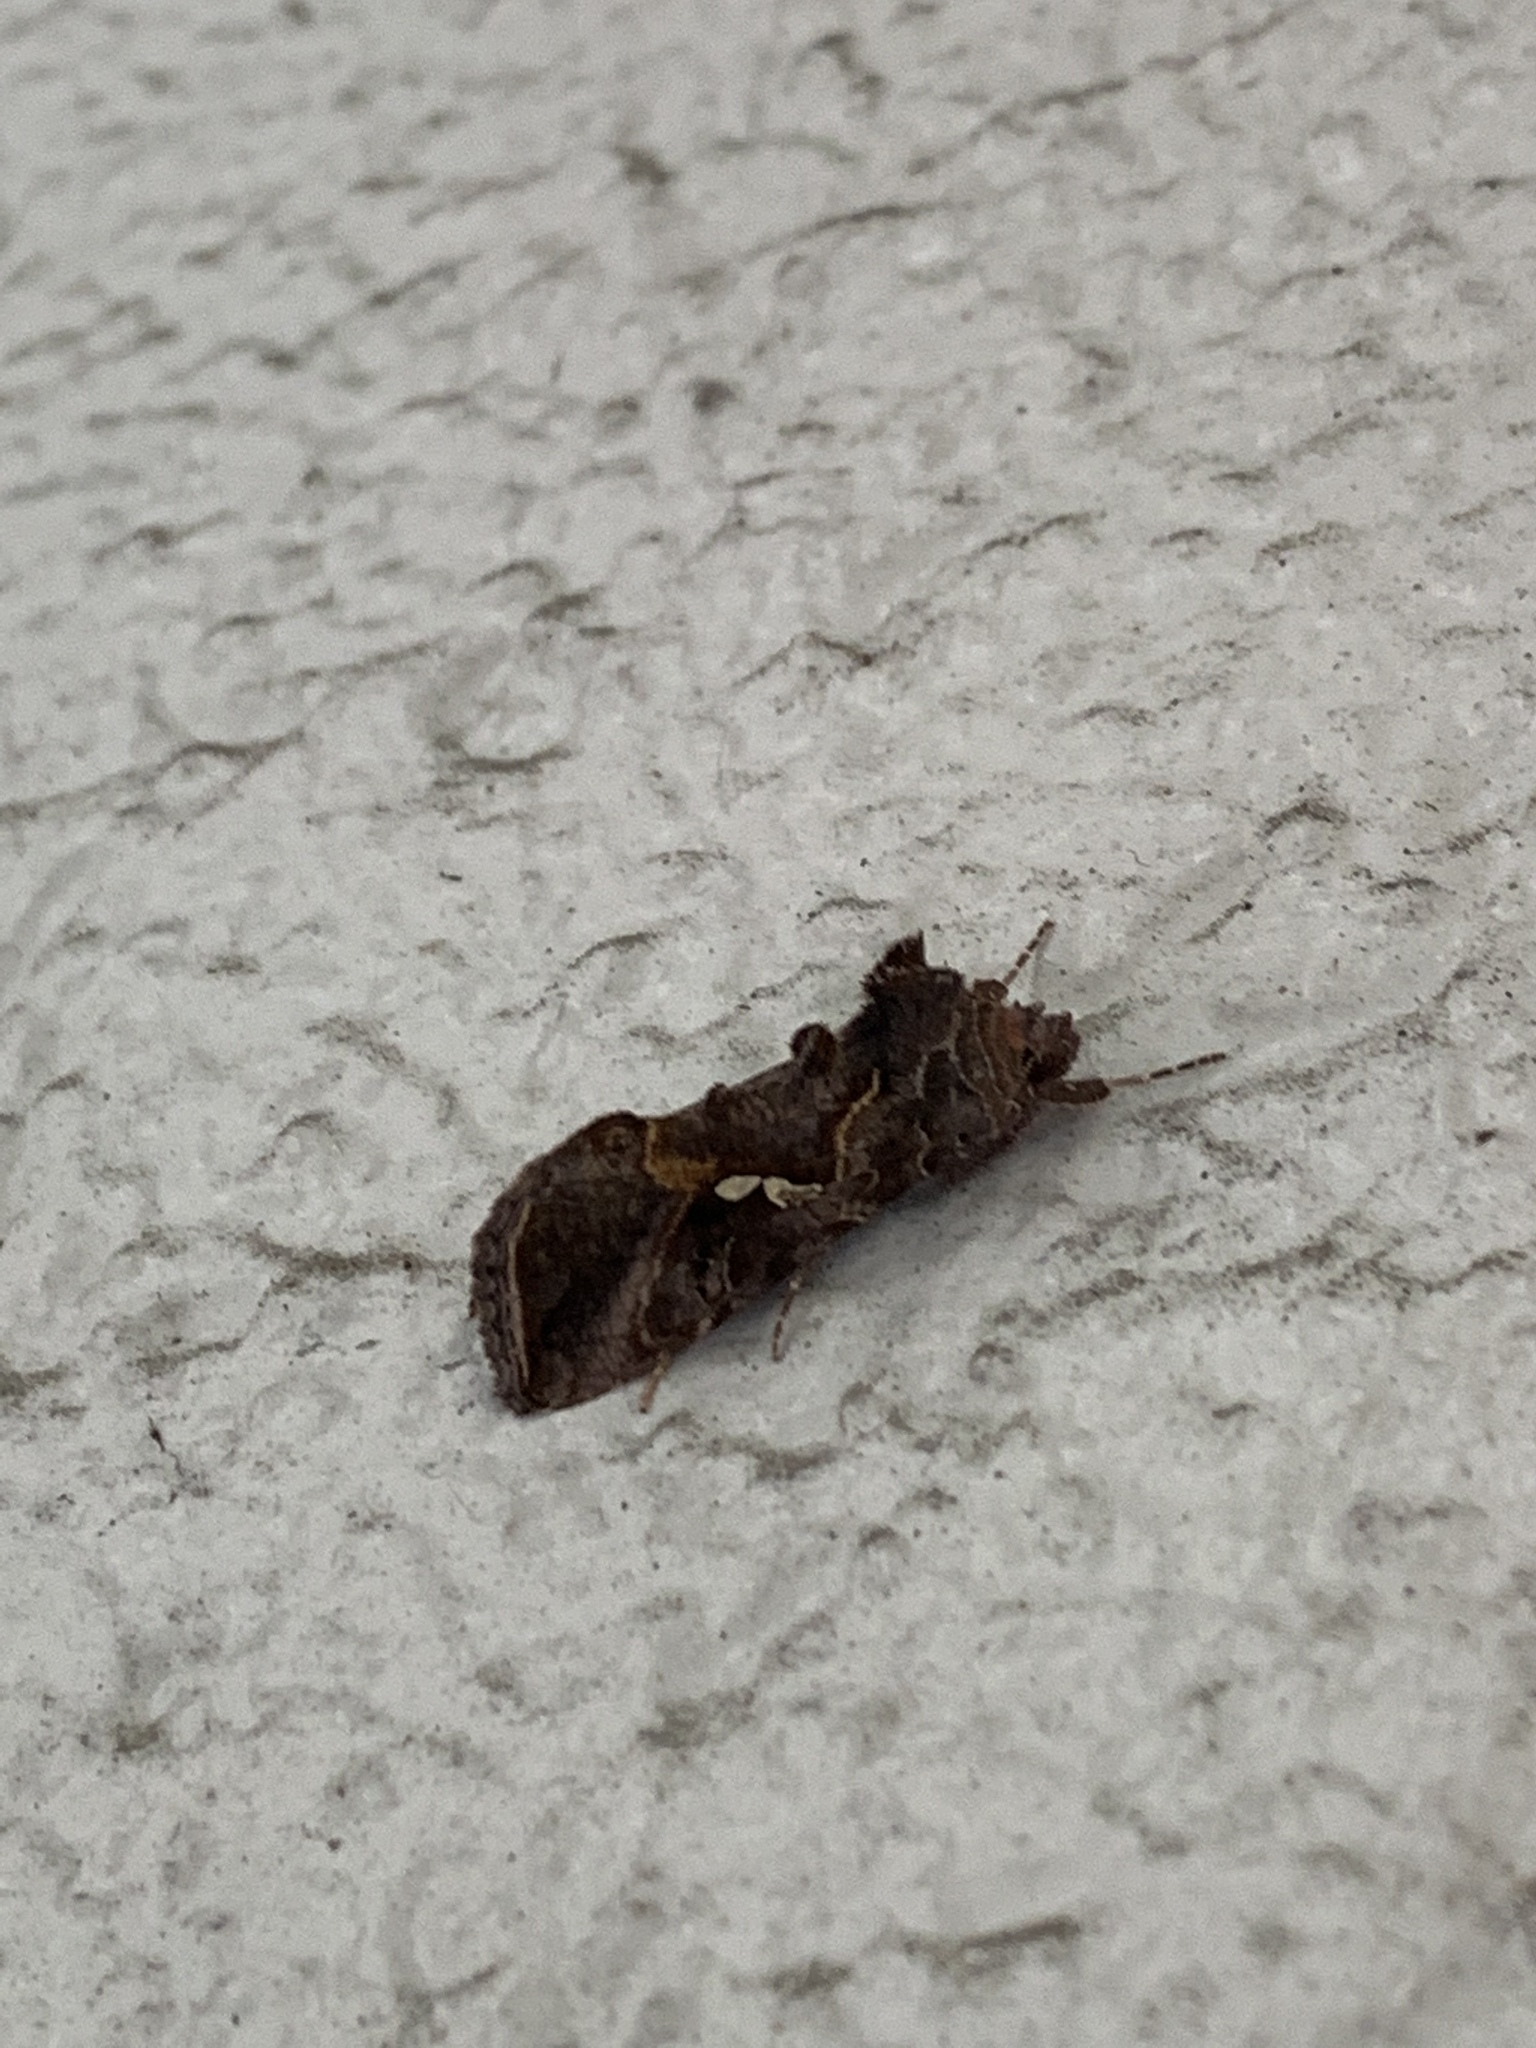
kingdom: Animalia
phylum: Arthropoda
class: Insecta
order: Lepidoptera
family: Noctuidae
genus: Autographa
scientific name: Autographa precationis
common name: Common looper moth
